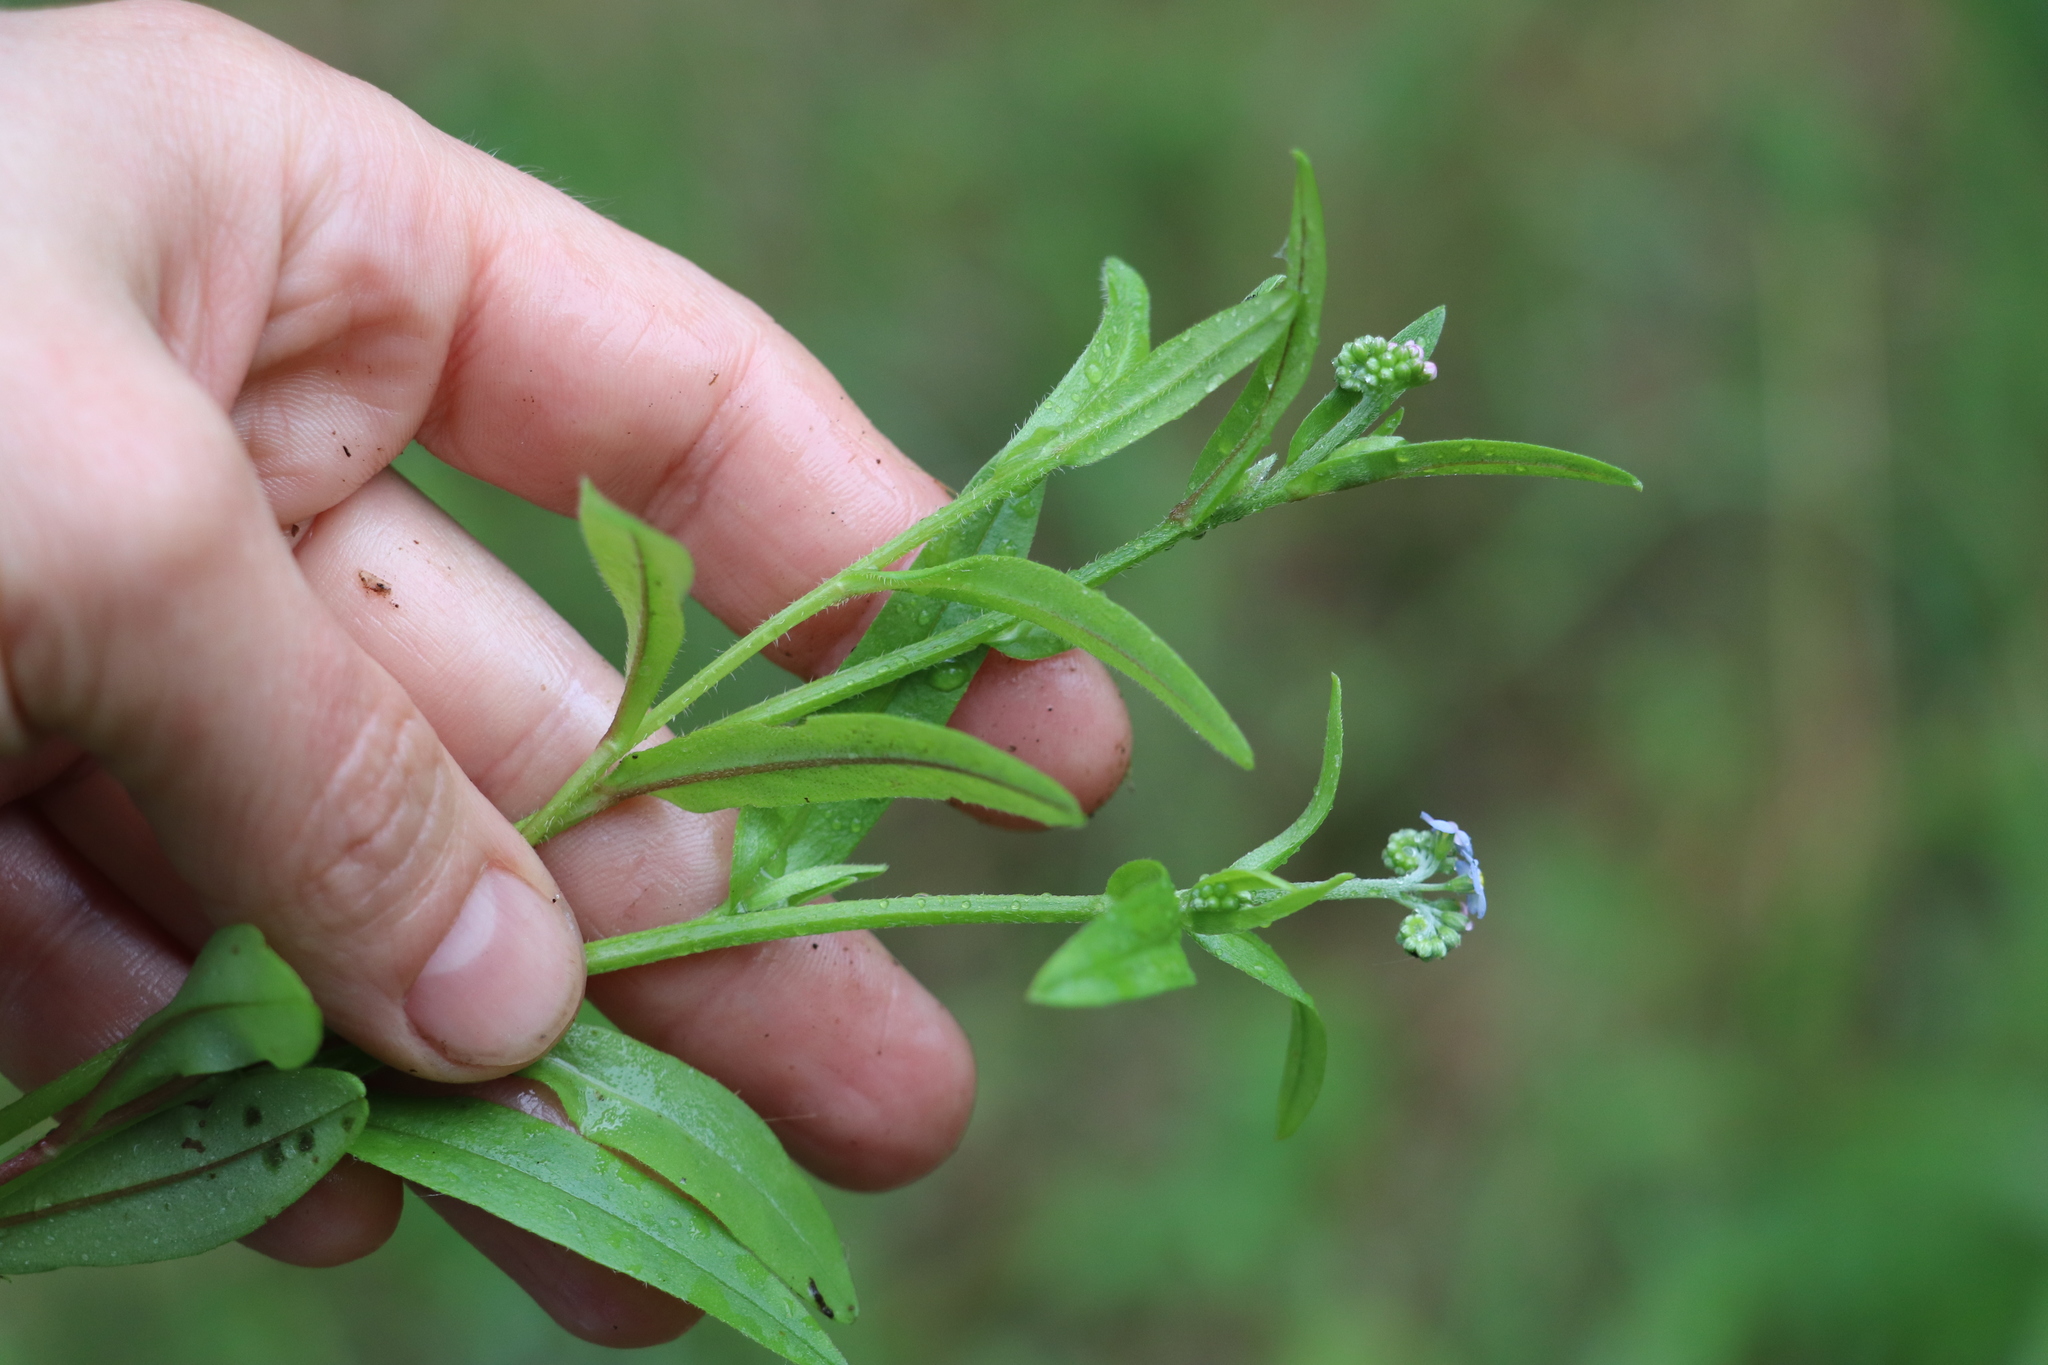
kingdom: Plantae
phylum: Tracheophyta
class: Magnoliopsida
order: Boraginales
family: Boraginaceae
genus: Myosotis
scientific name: Myosotis scorpioides
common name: Water forget-me-not
